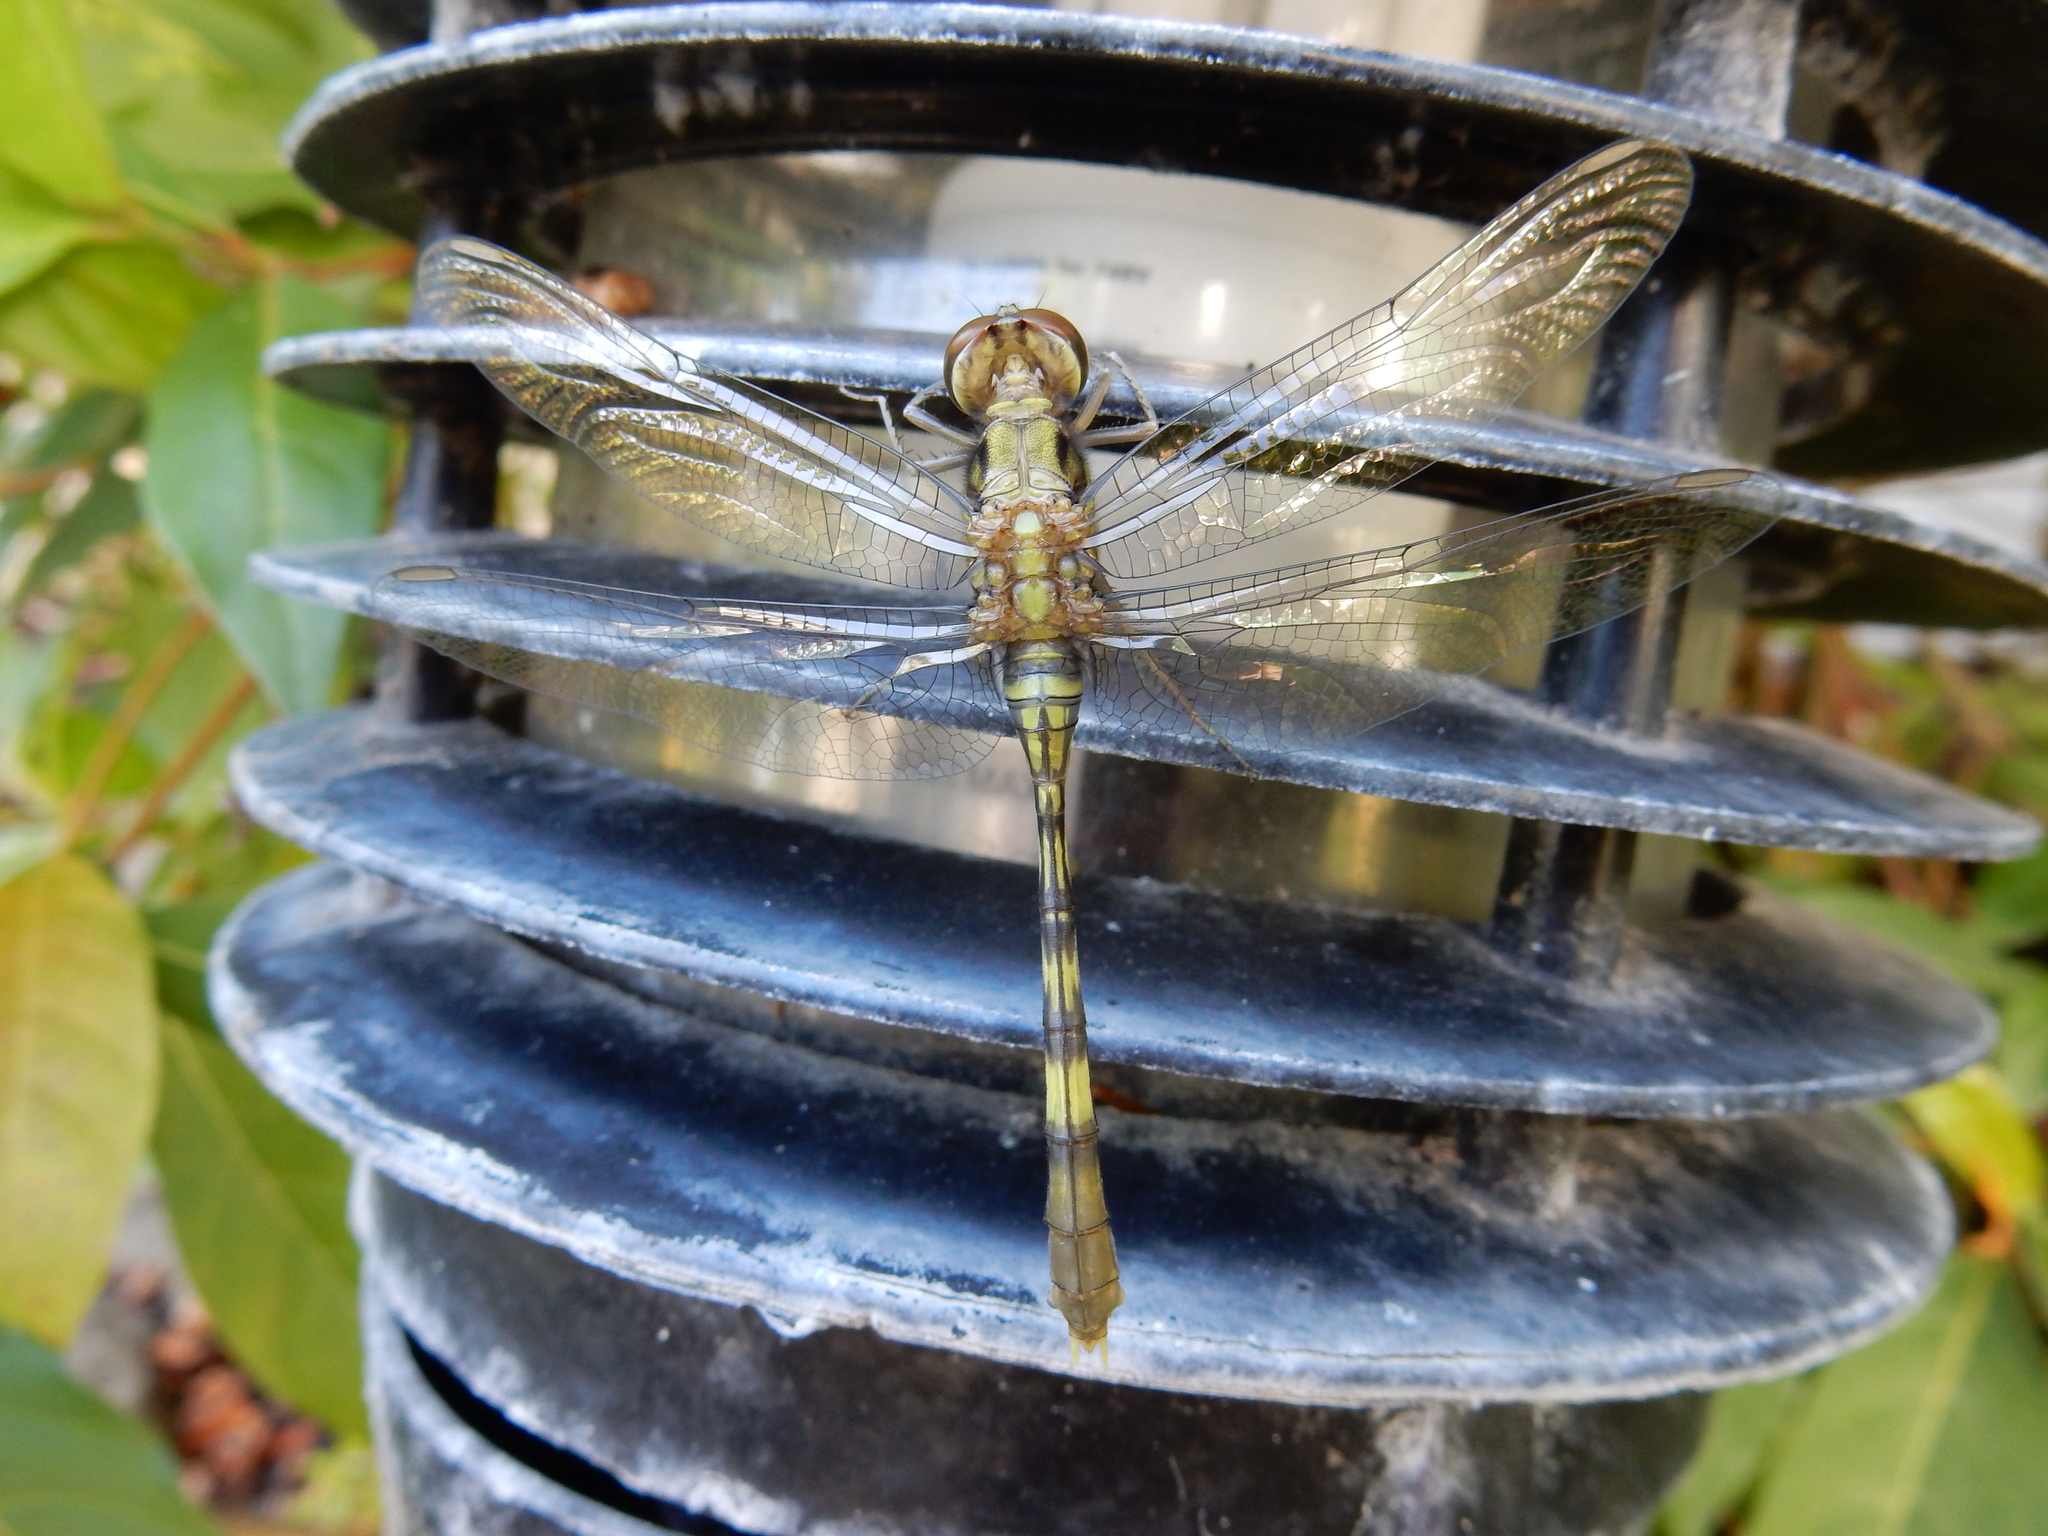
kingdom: Animalia
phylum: Arthropoda
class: Insecta
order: Odonata
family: Libellulidae
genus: Orthetrum
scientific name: Orthetrum serapia
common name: Green skimmer
